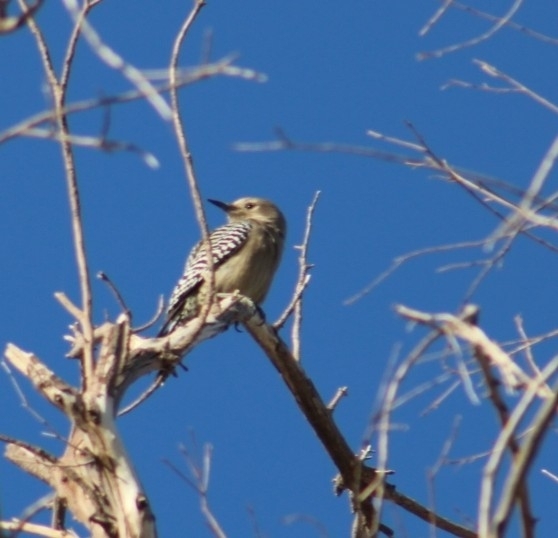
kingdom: Animalia
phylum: Chordata
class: Aves
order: Piciformes
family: Picidae
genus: Melanerpes
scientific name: Melanerpes uropygialis
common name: Gila woodpecker
